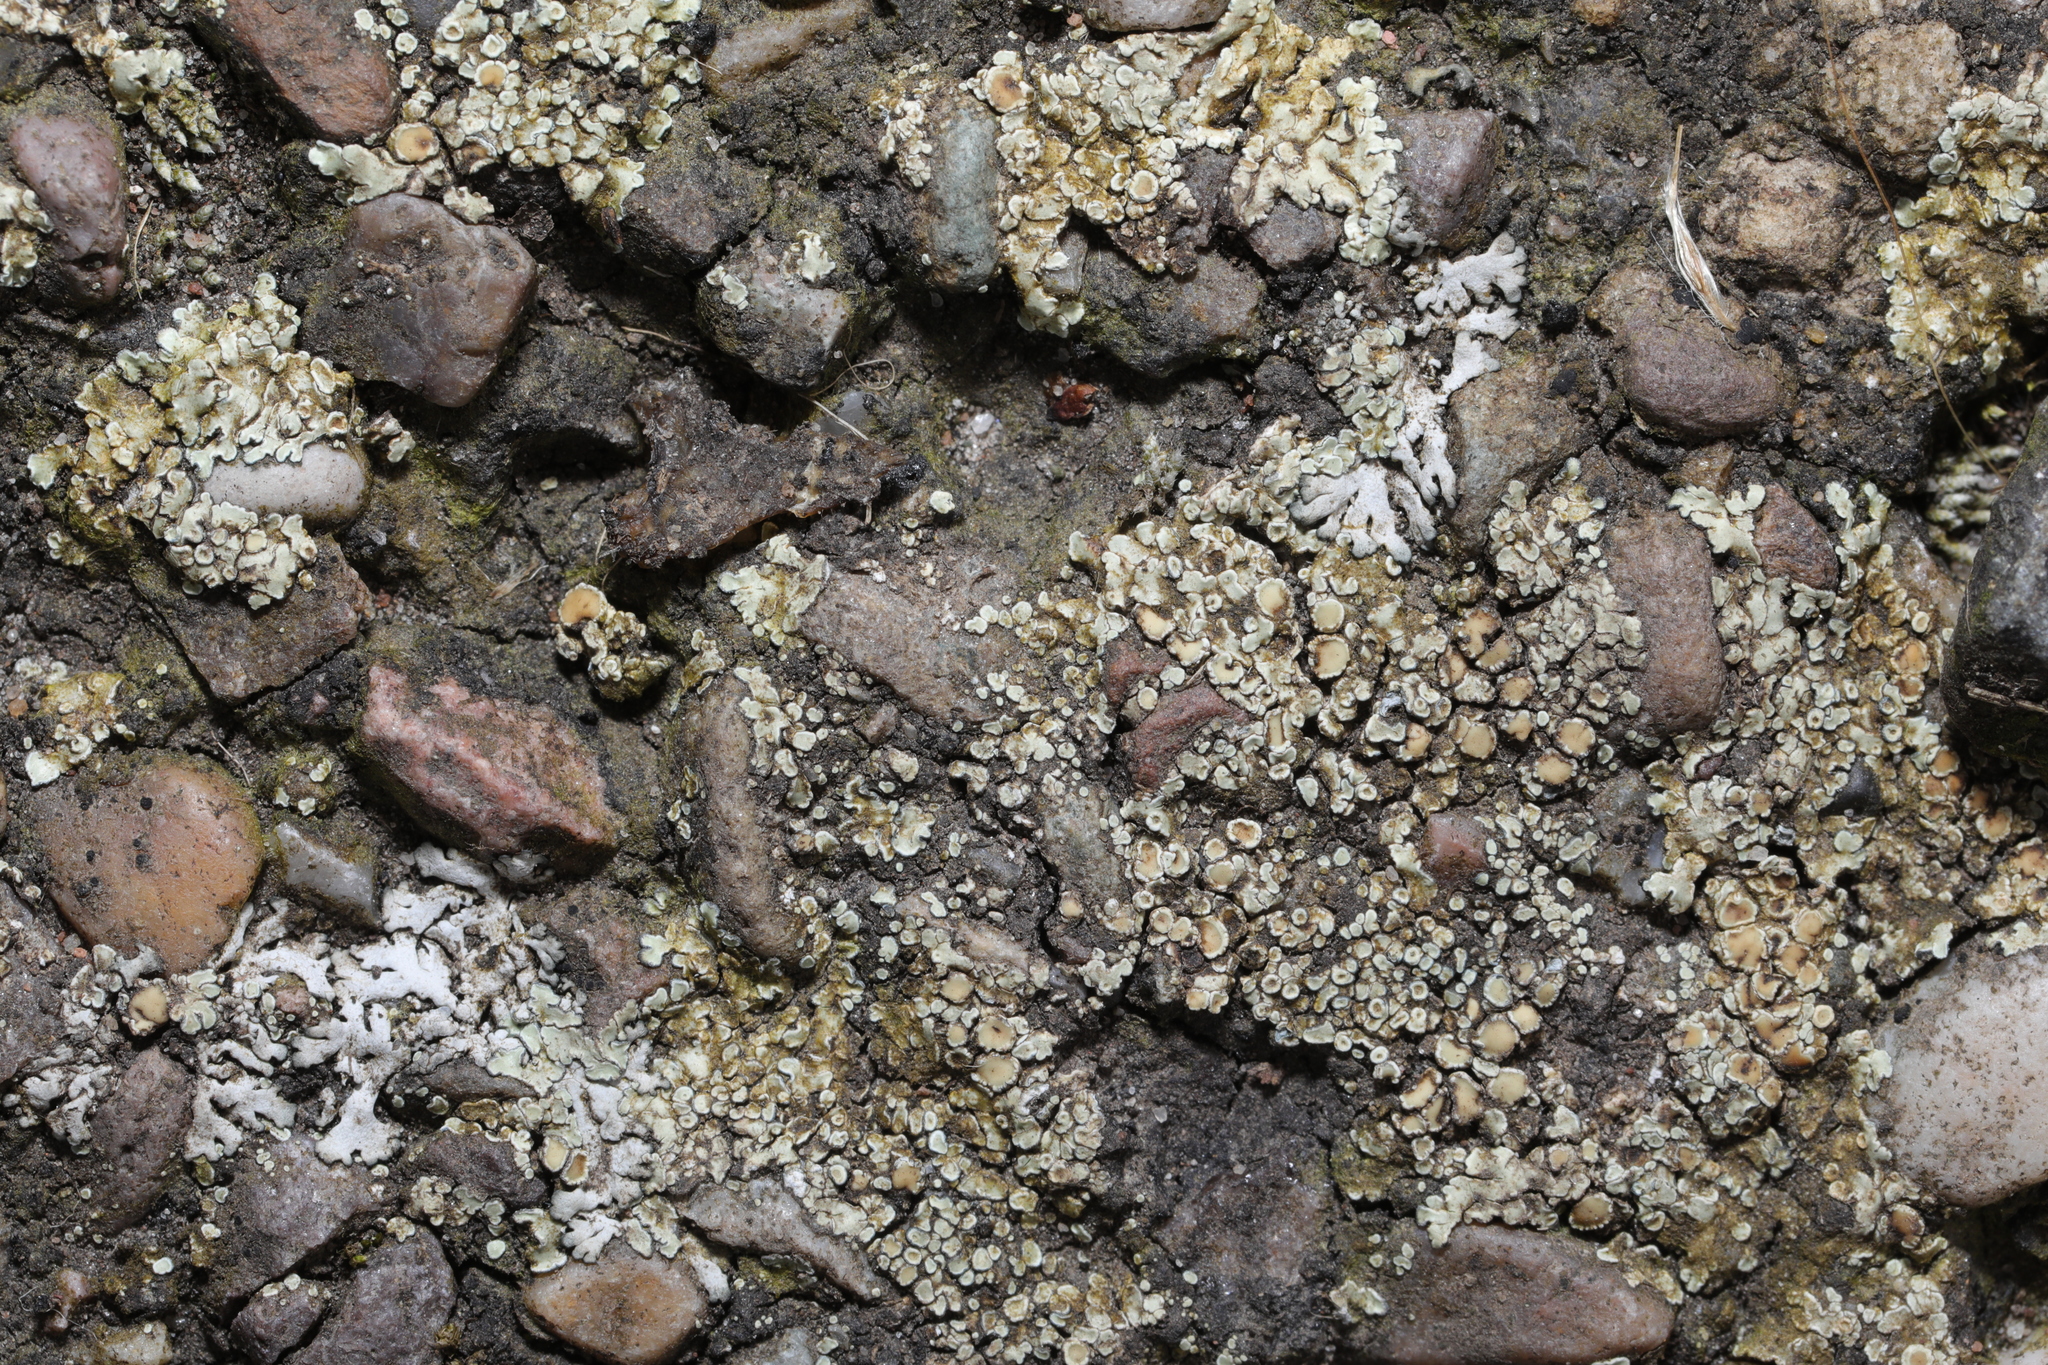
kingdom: Fungi
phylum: Ascomycota
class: Lecanoromycetes
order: Lecanorales
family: Lecanoraceae
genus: Protoparmeliopsis
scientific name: Protoparmeliopsis muralis
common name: Stonewall rim lichen
